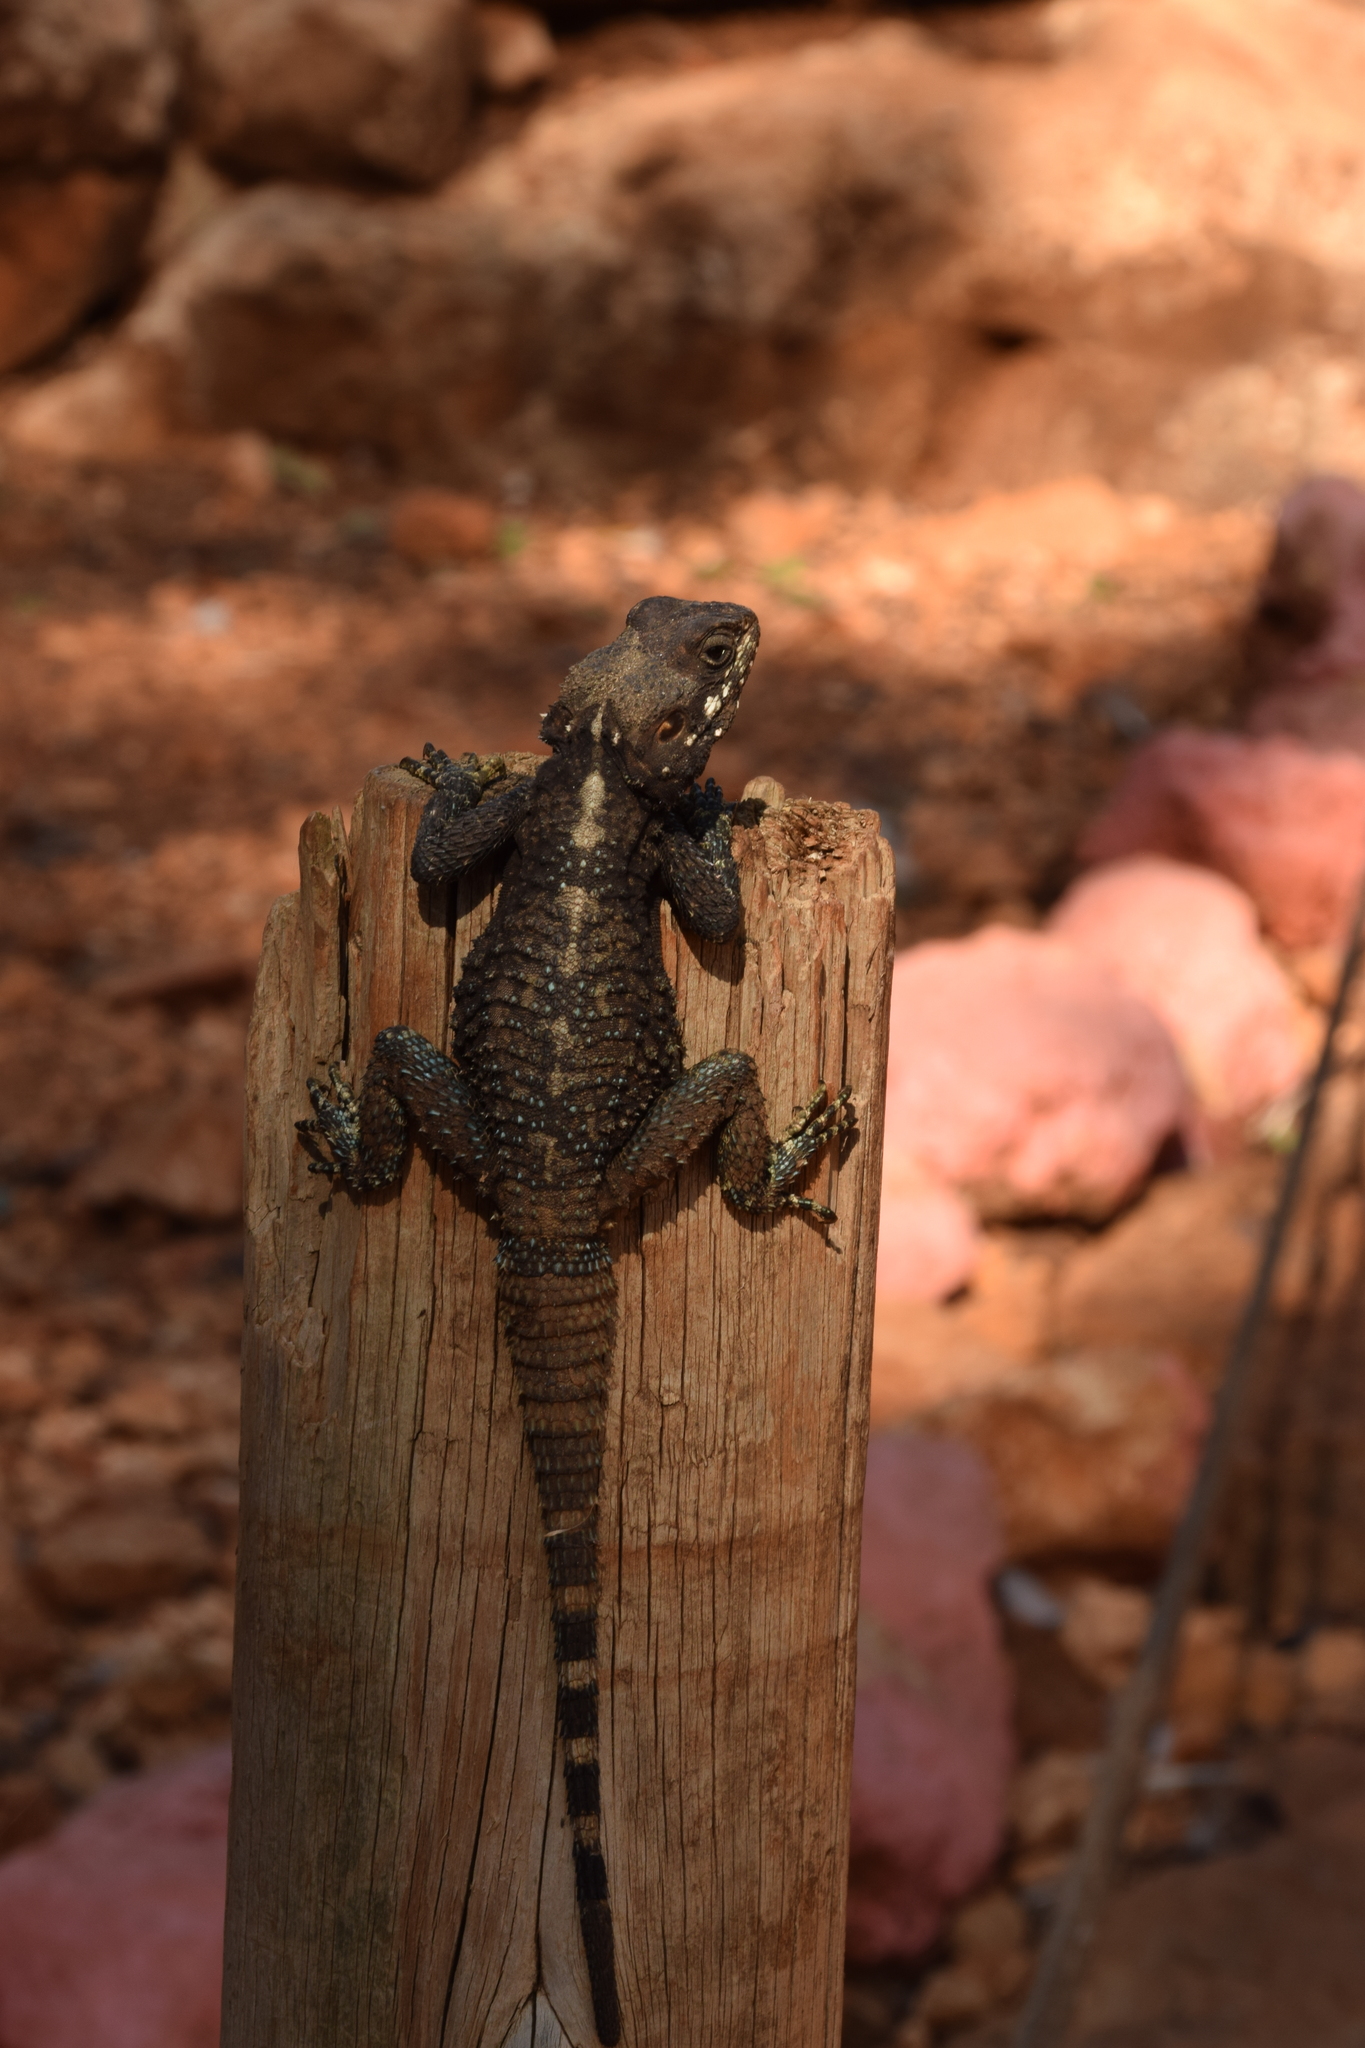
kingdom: Animalia
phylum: Chordata
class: Squamata
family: Agamidae
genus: Laudakia
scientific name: Laudakia vulgaris
